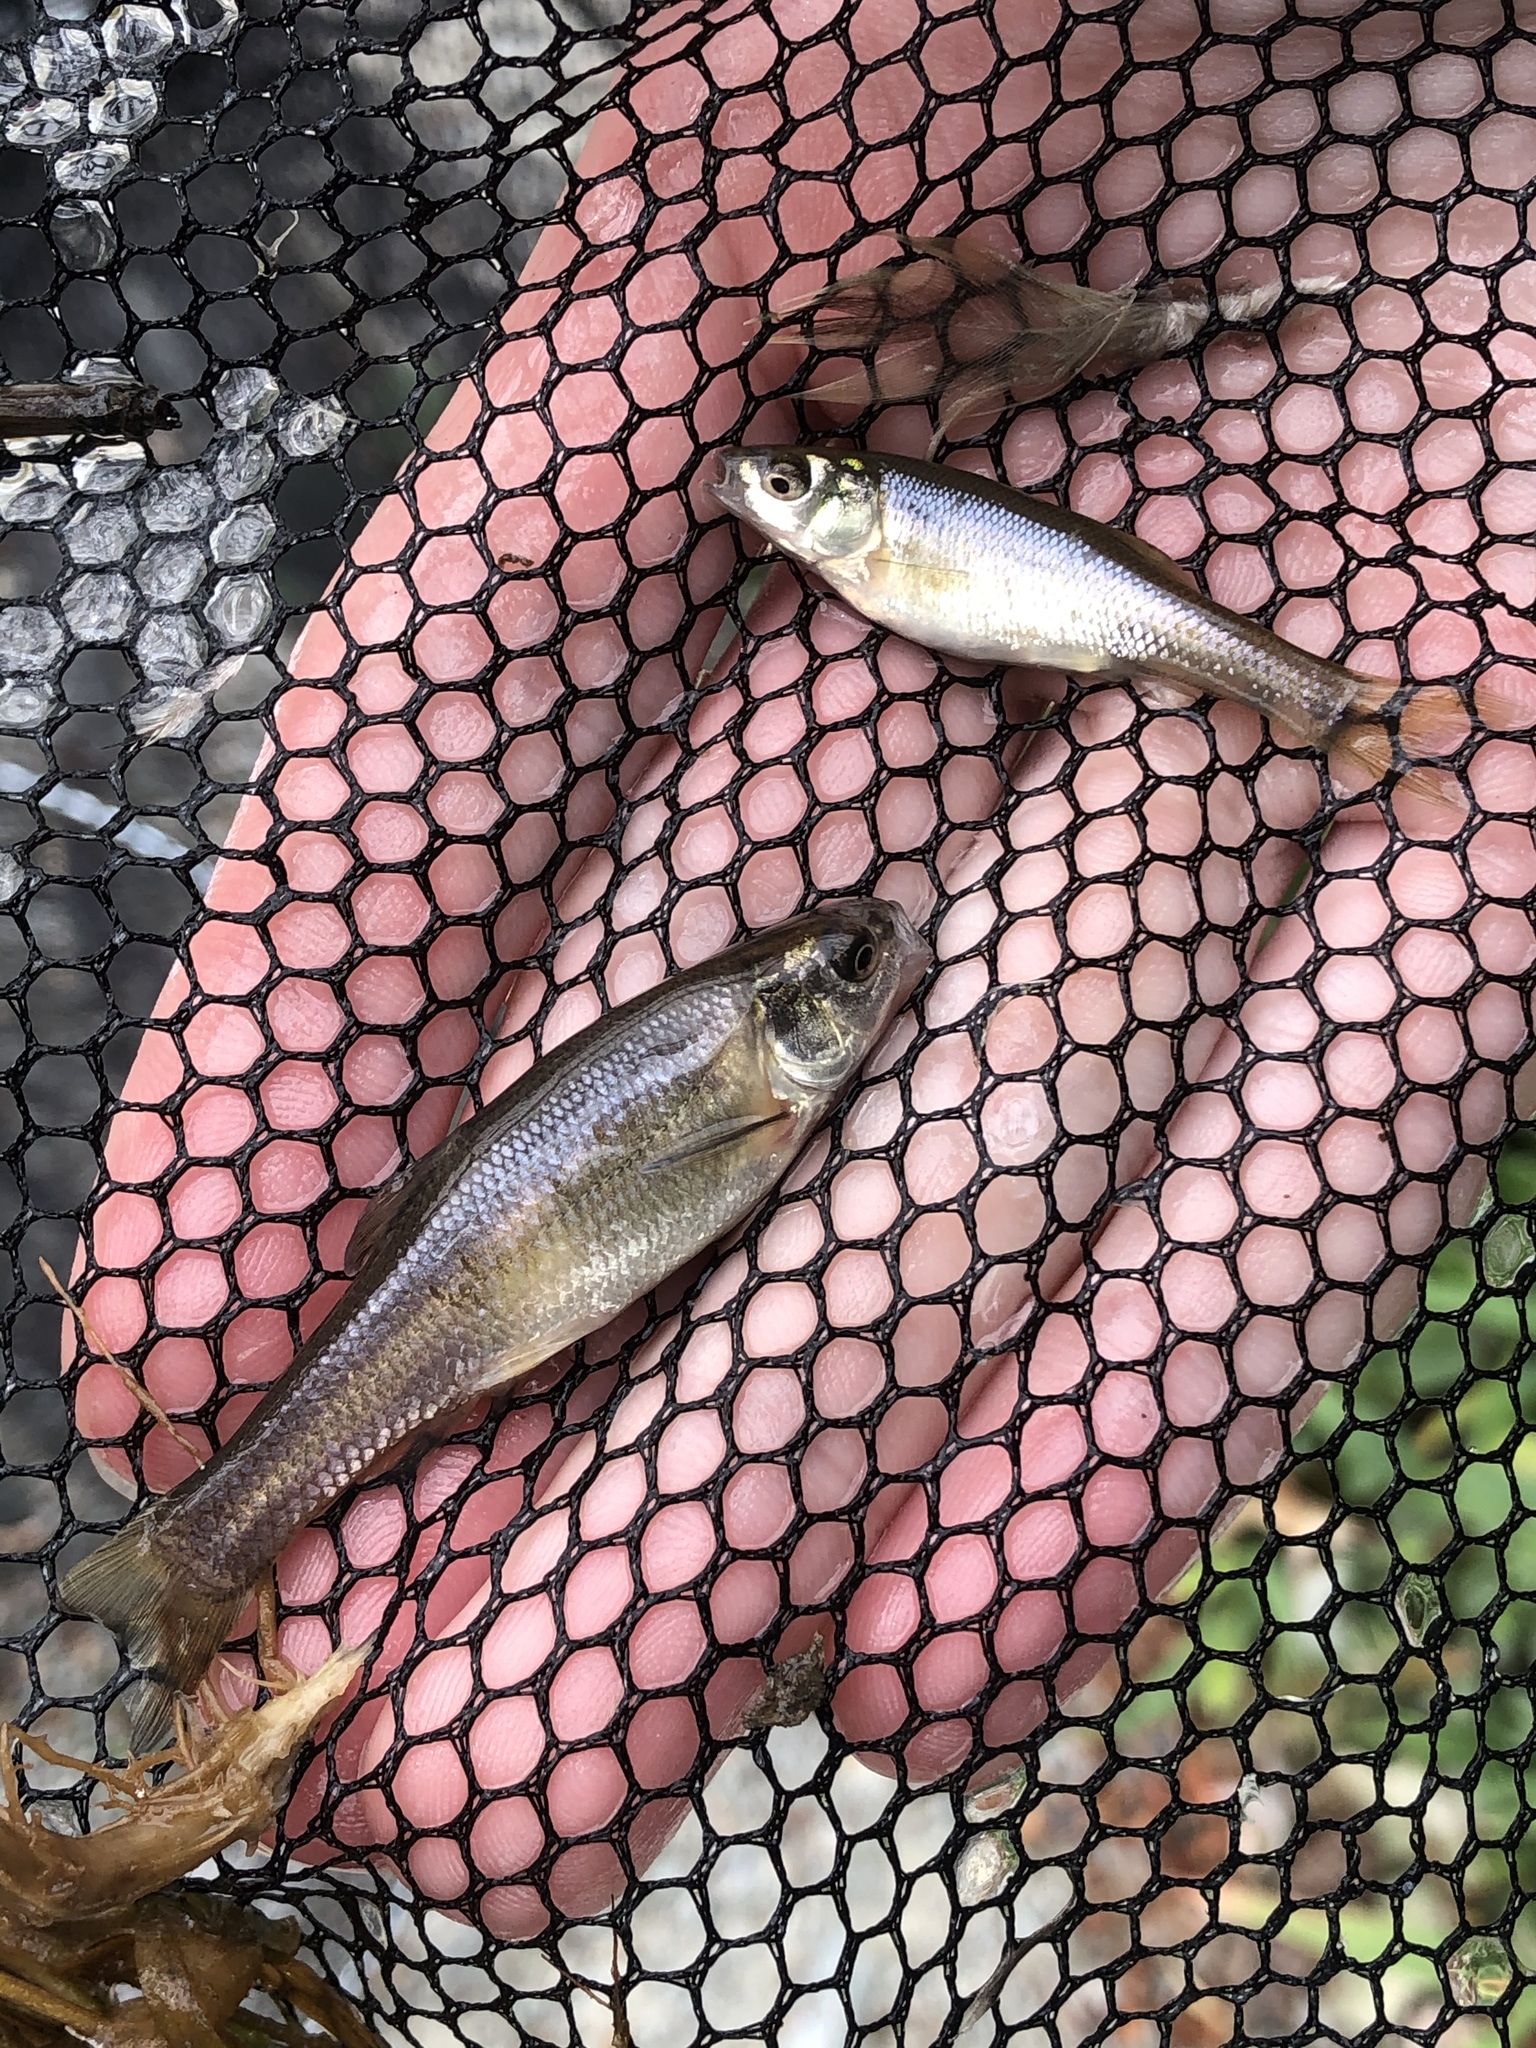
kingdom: Animalia
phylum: Chordata
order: Cypriniformes
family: Cyprinidae
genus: Pimephales
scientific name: Pimephales promelas
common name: Fathead minnow
